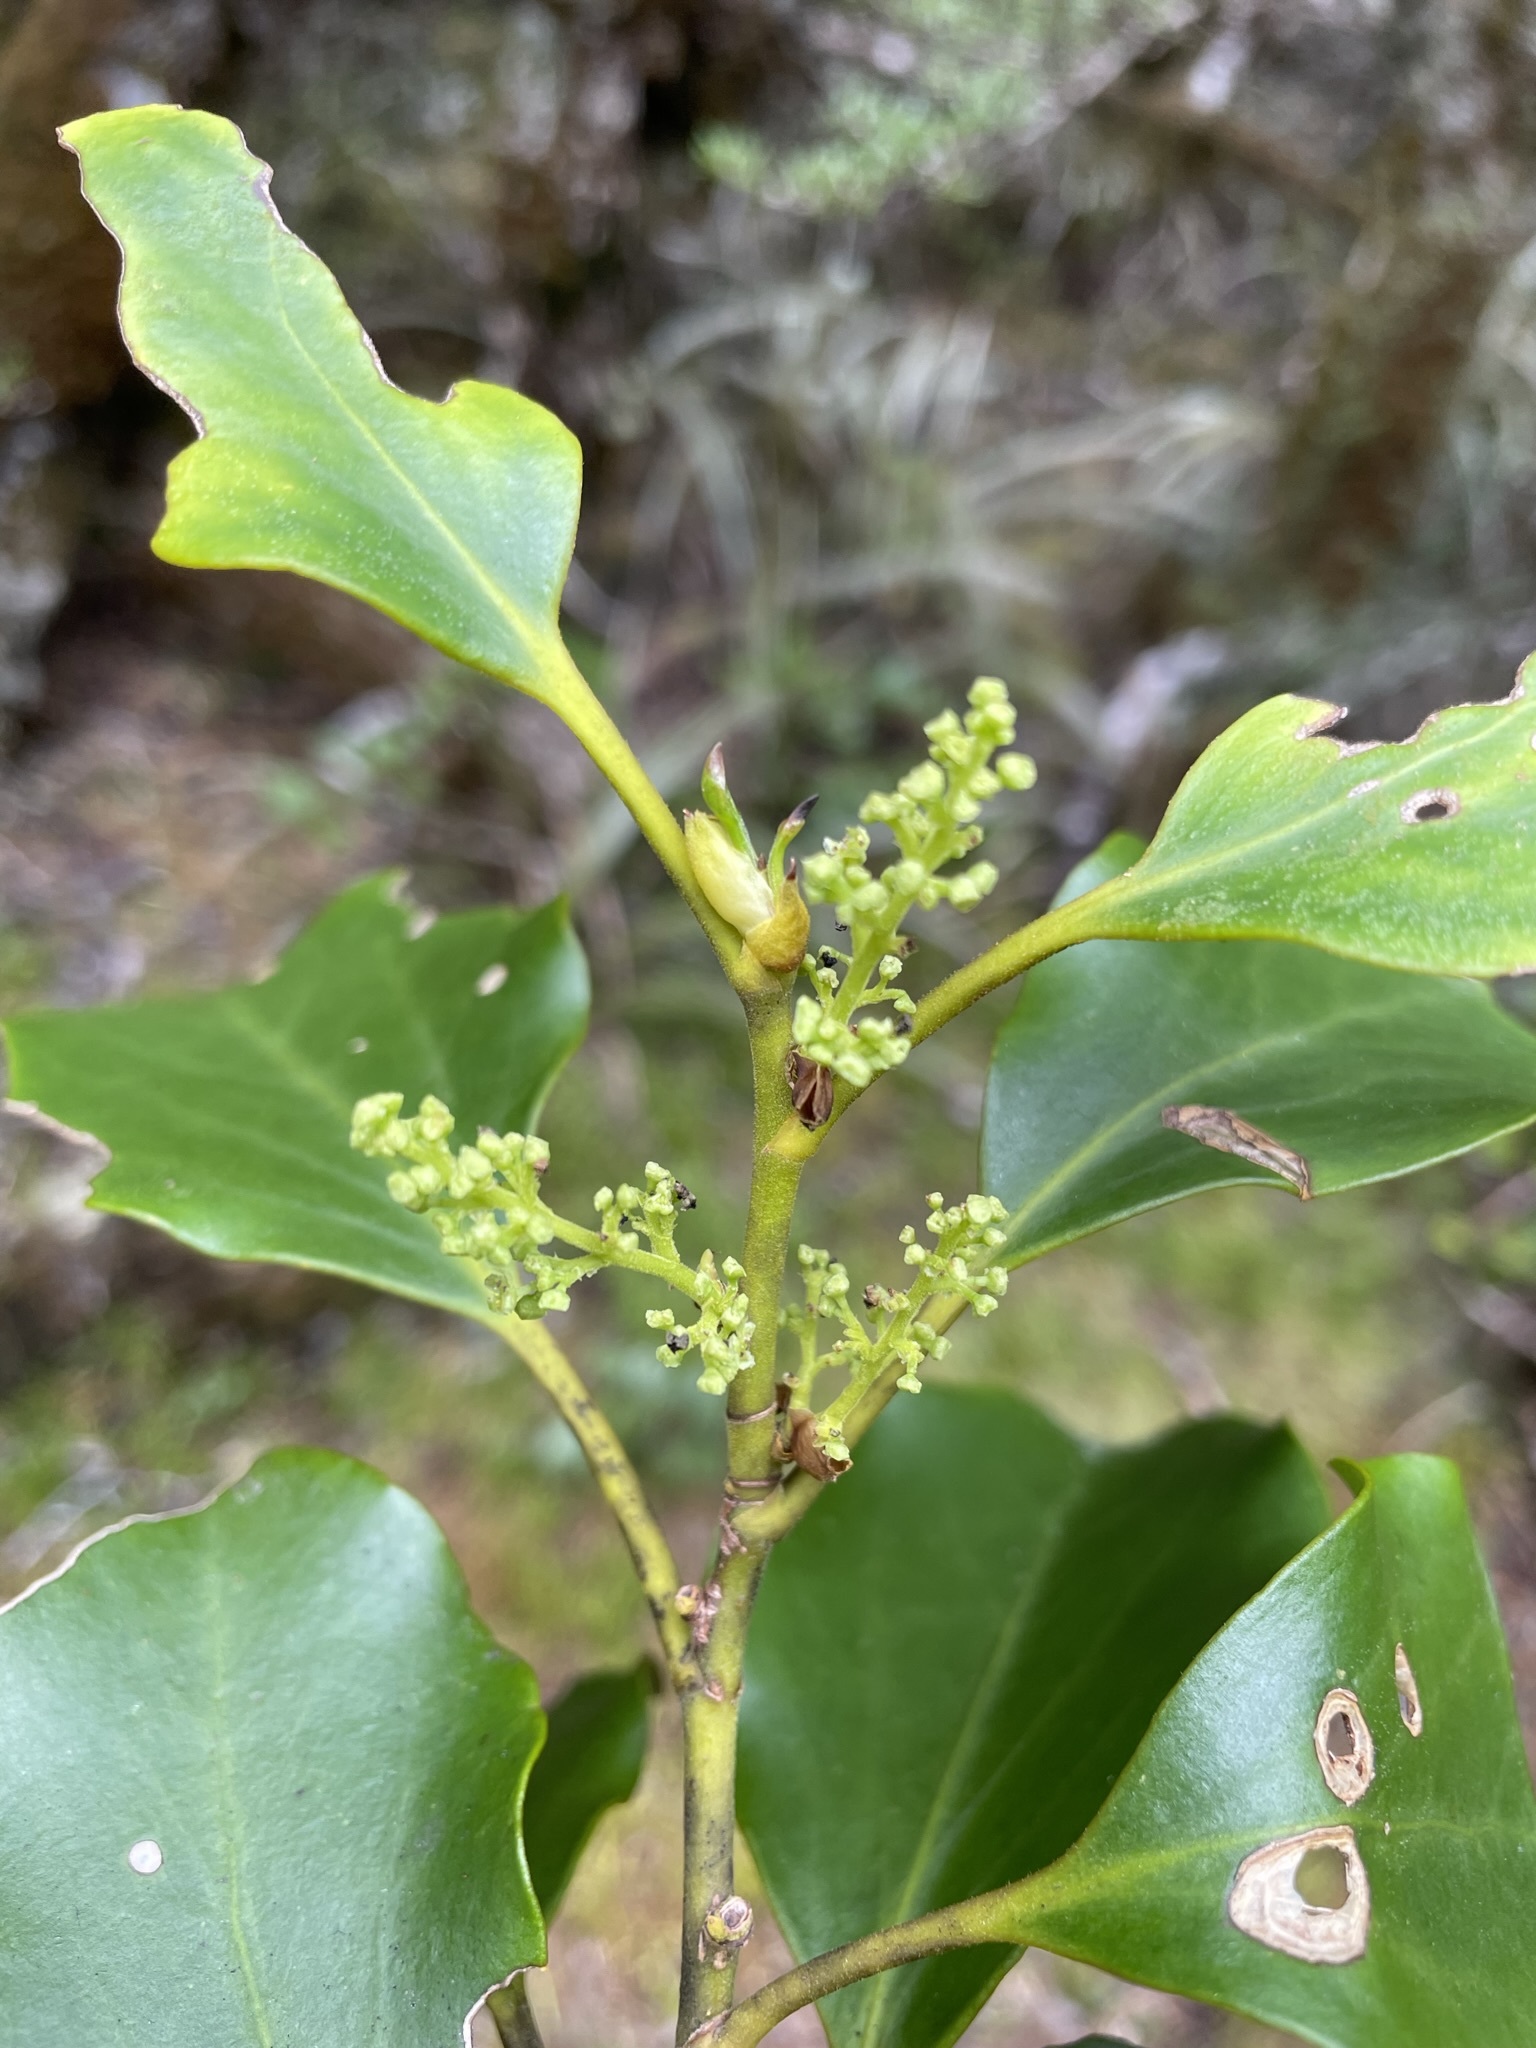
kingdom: Plantae
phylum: Tracheophyta
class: Magnoliopsida
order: Apiales
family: Griseliniaceae
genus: Griselinia
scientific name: Griselinia littoralis
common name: New zealand broadleaf
